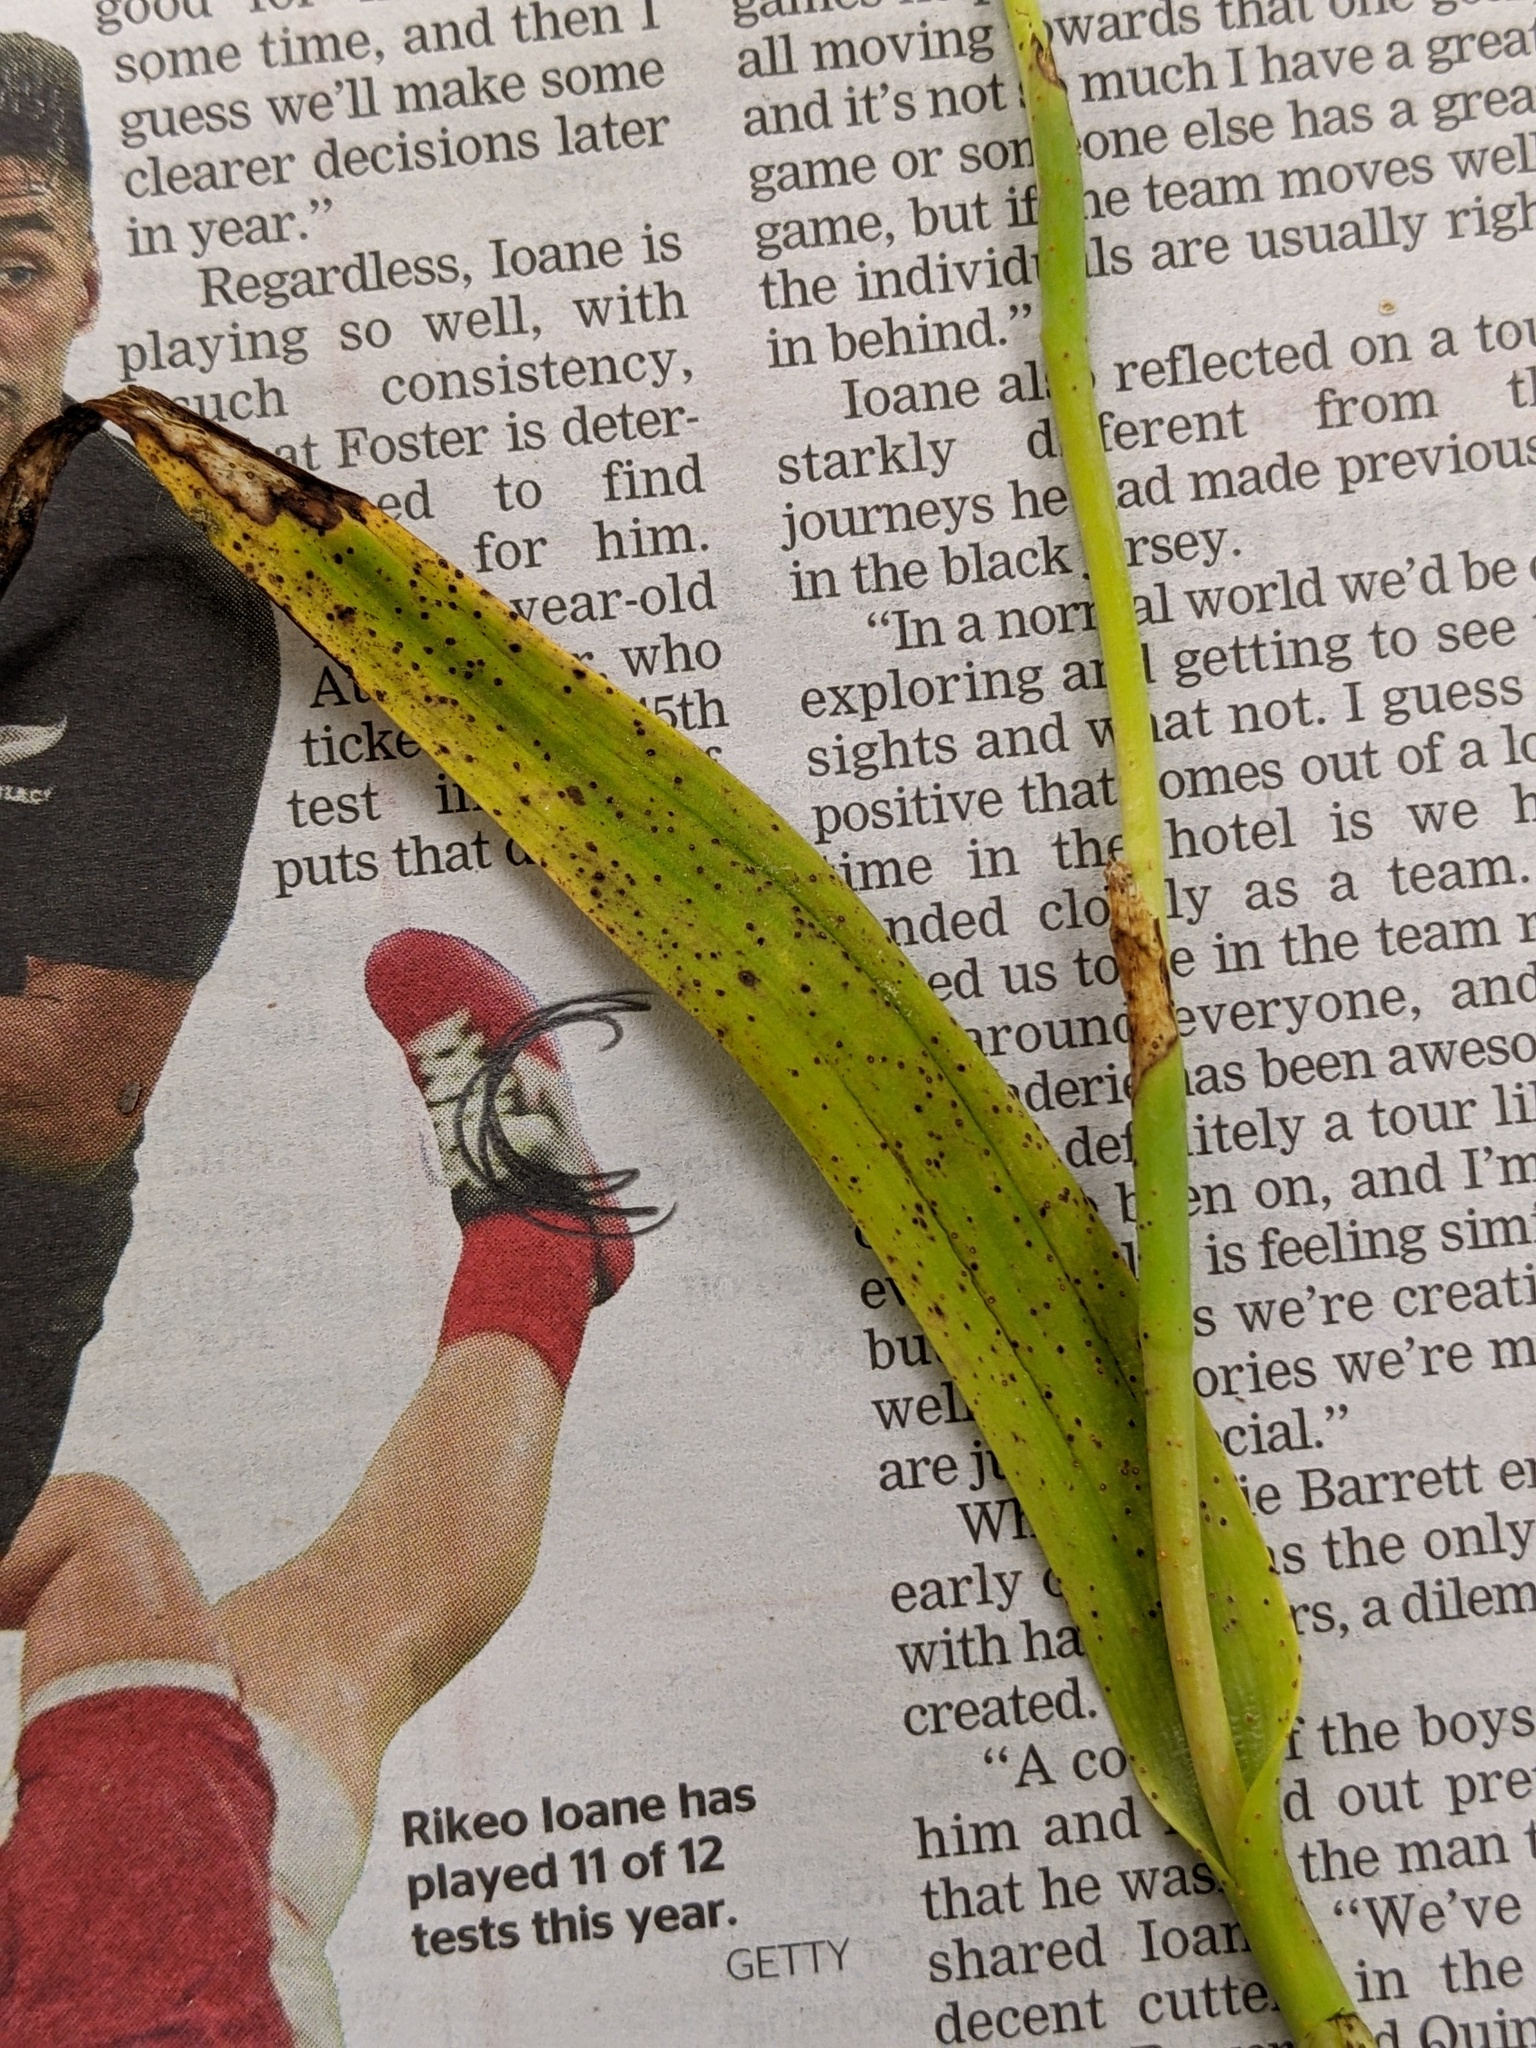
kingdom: Plantae
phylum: Tracheophyta
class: Liliopsida
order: Asparagales
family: Orchidaceae
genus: Thelymitra
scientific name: Thelymitra longifolia
